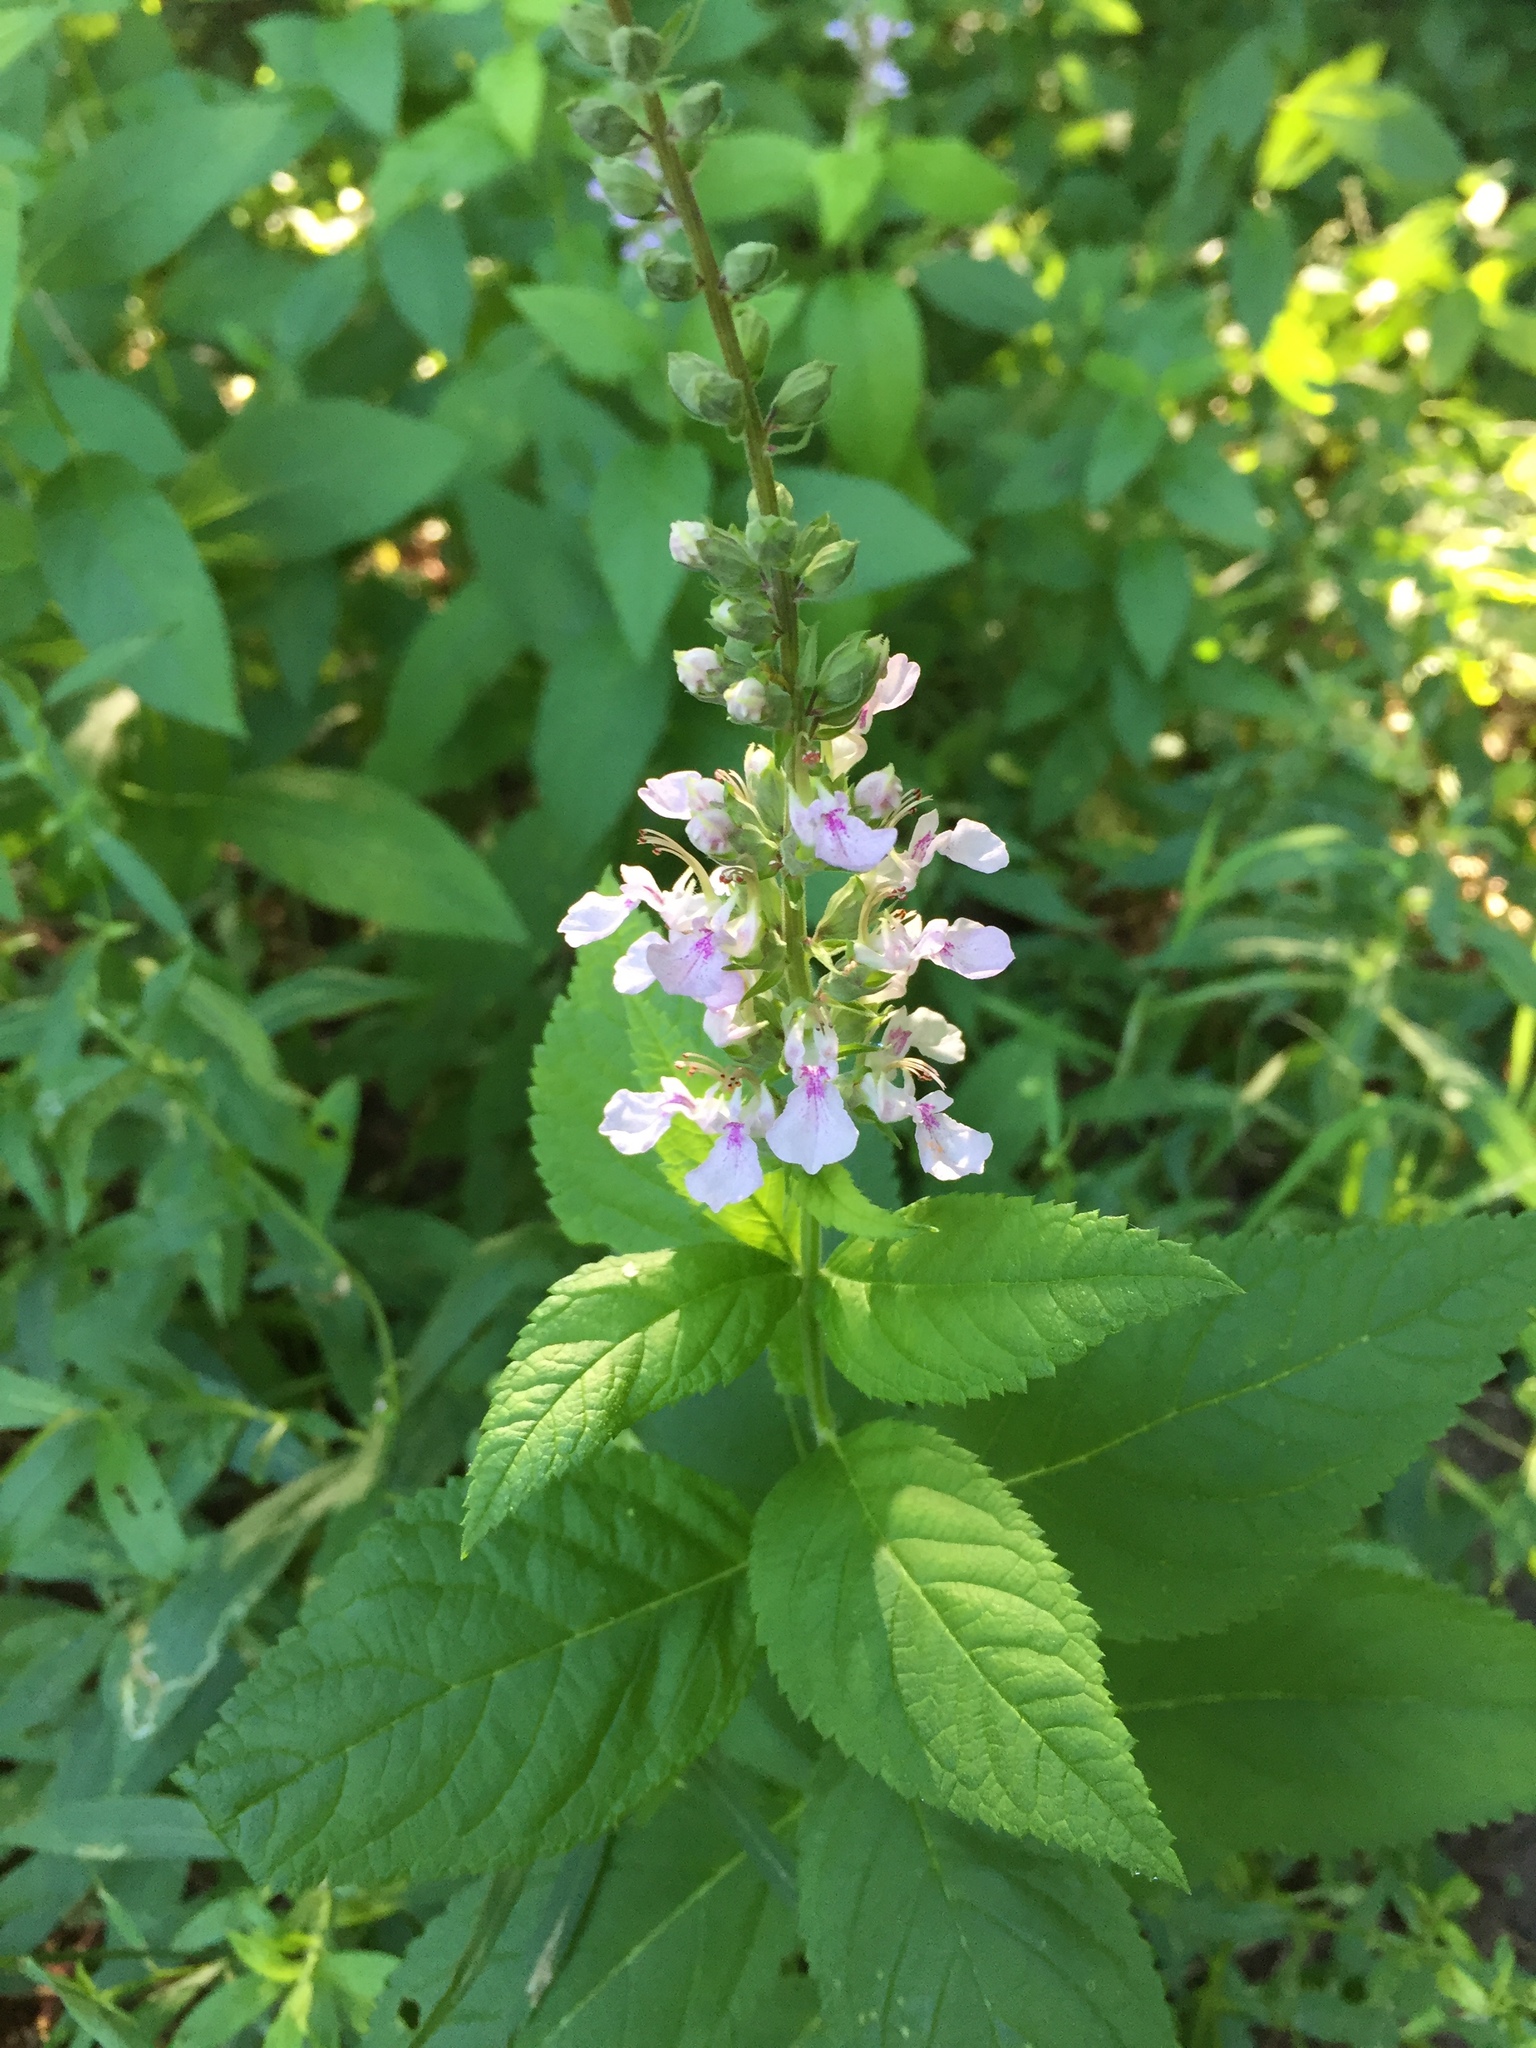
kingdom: Plantae
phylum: Tracheophyta
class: Magnoliopsida
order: Lamiales
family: Lamiaceae
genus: Teucrium
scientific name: Teucrium canadense
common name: American germander
